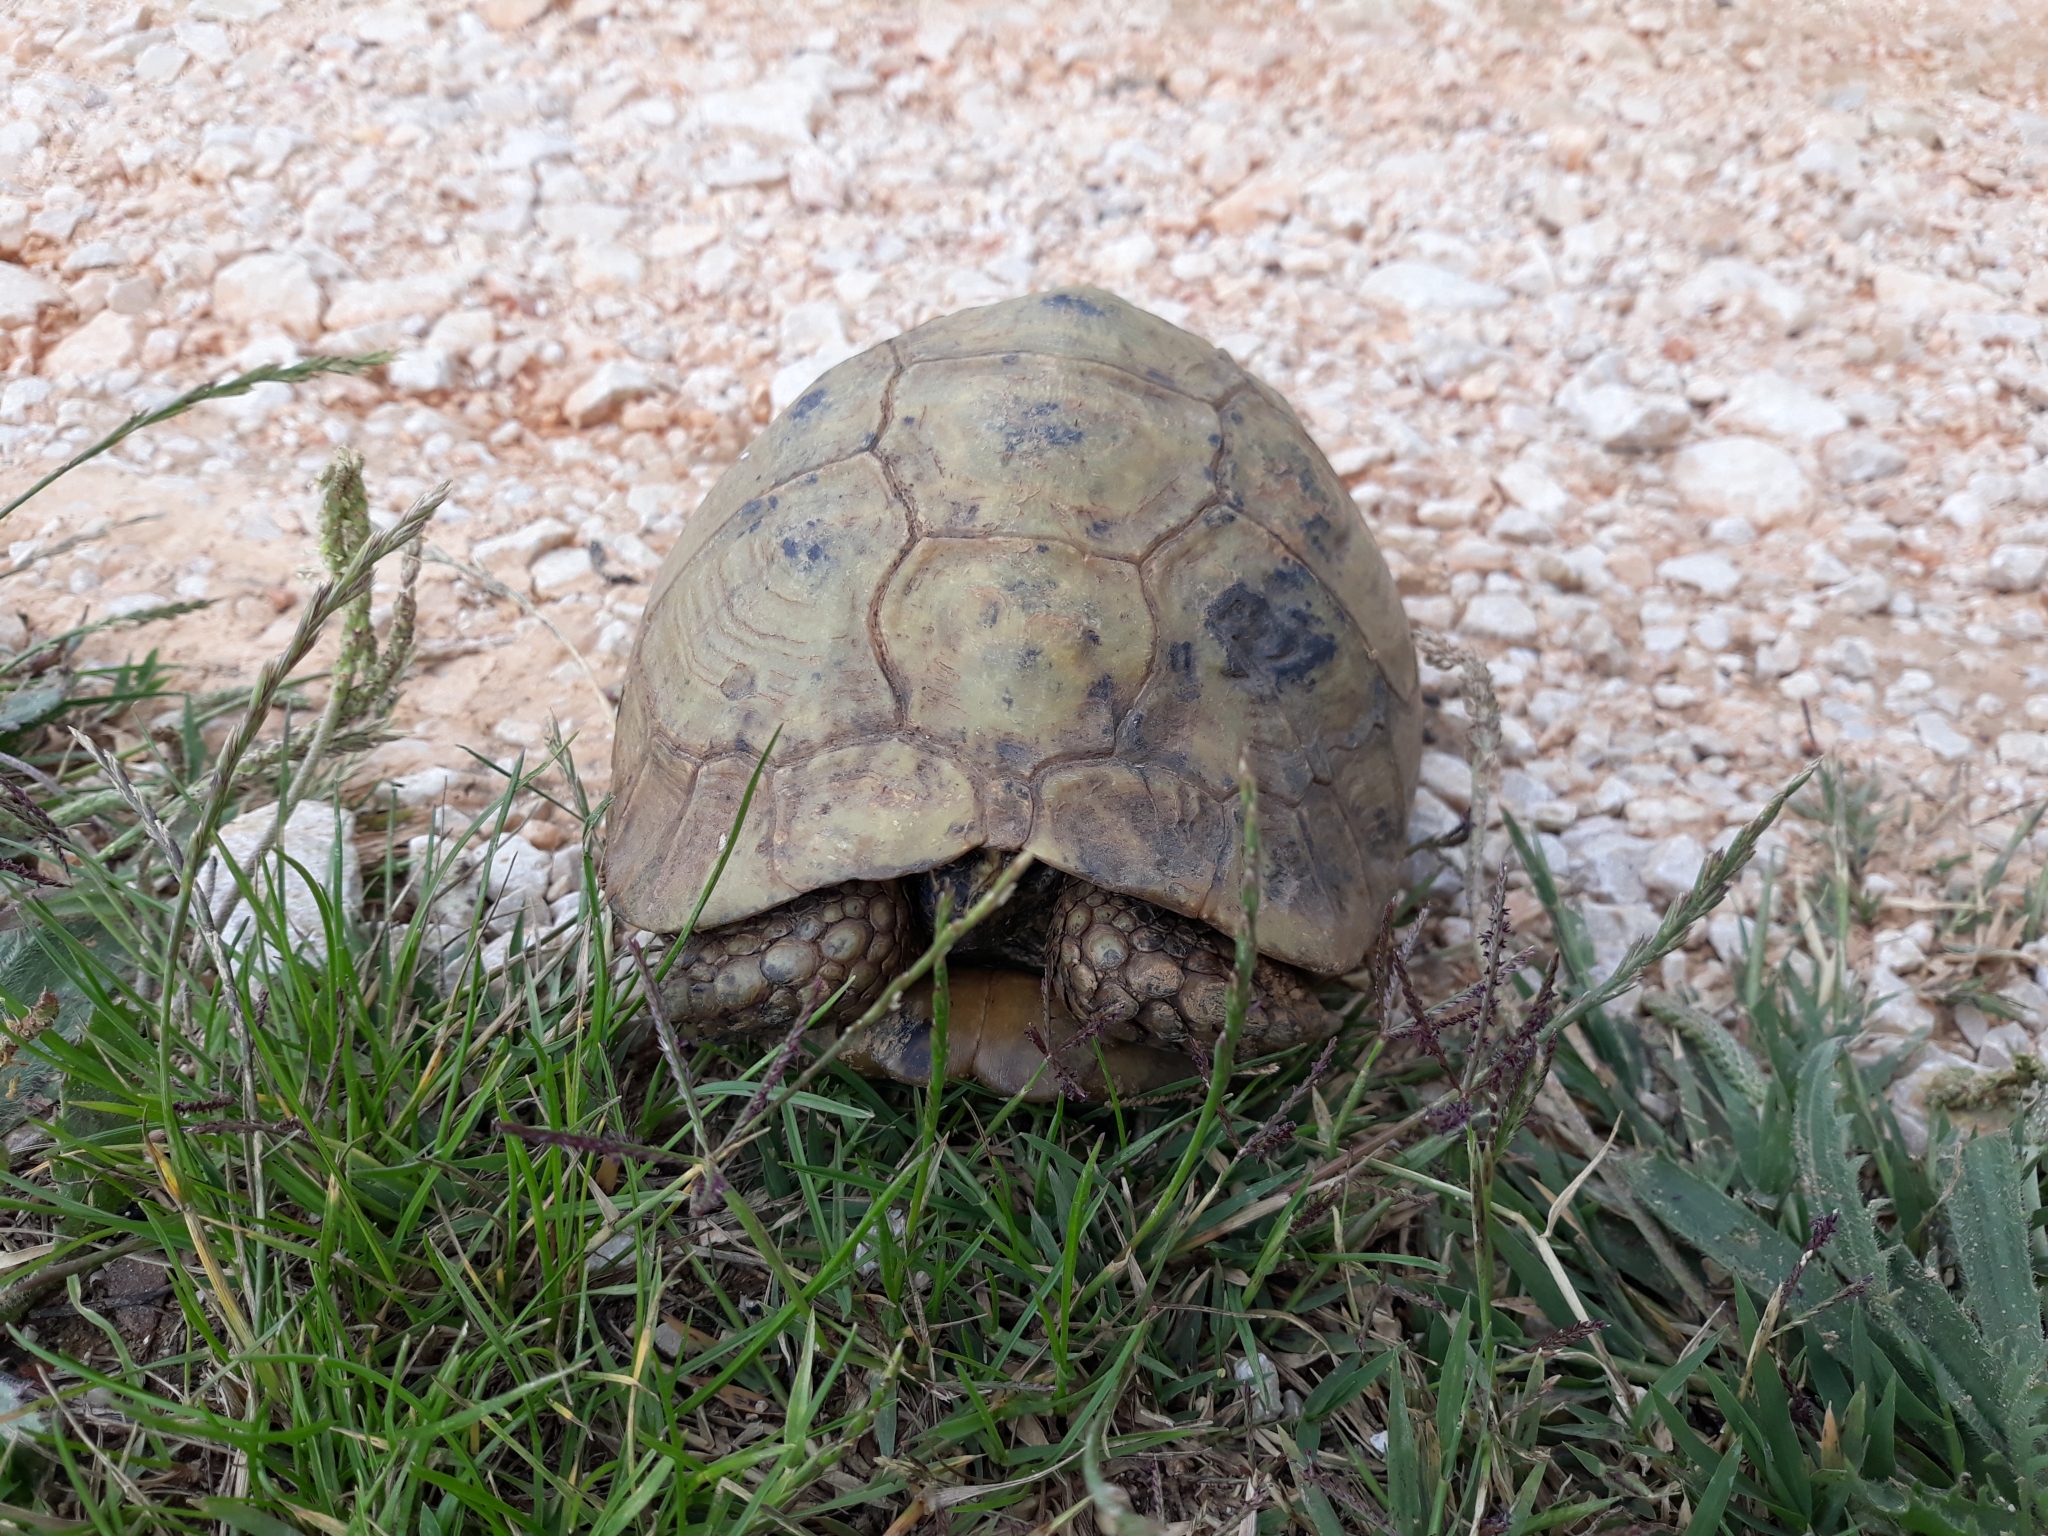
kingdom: Animalia
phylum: Chordata
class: Testudines
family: Testudinidae
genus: Testudo
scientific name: Testudo graeca
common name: Common tortoise
